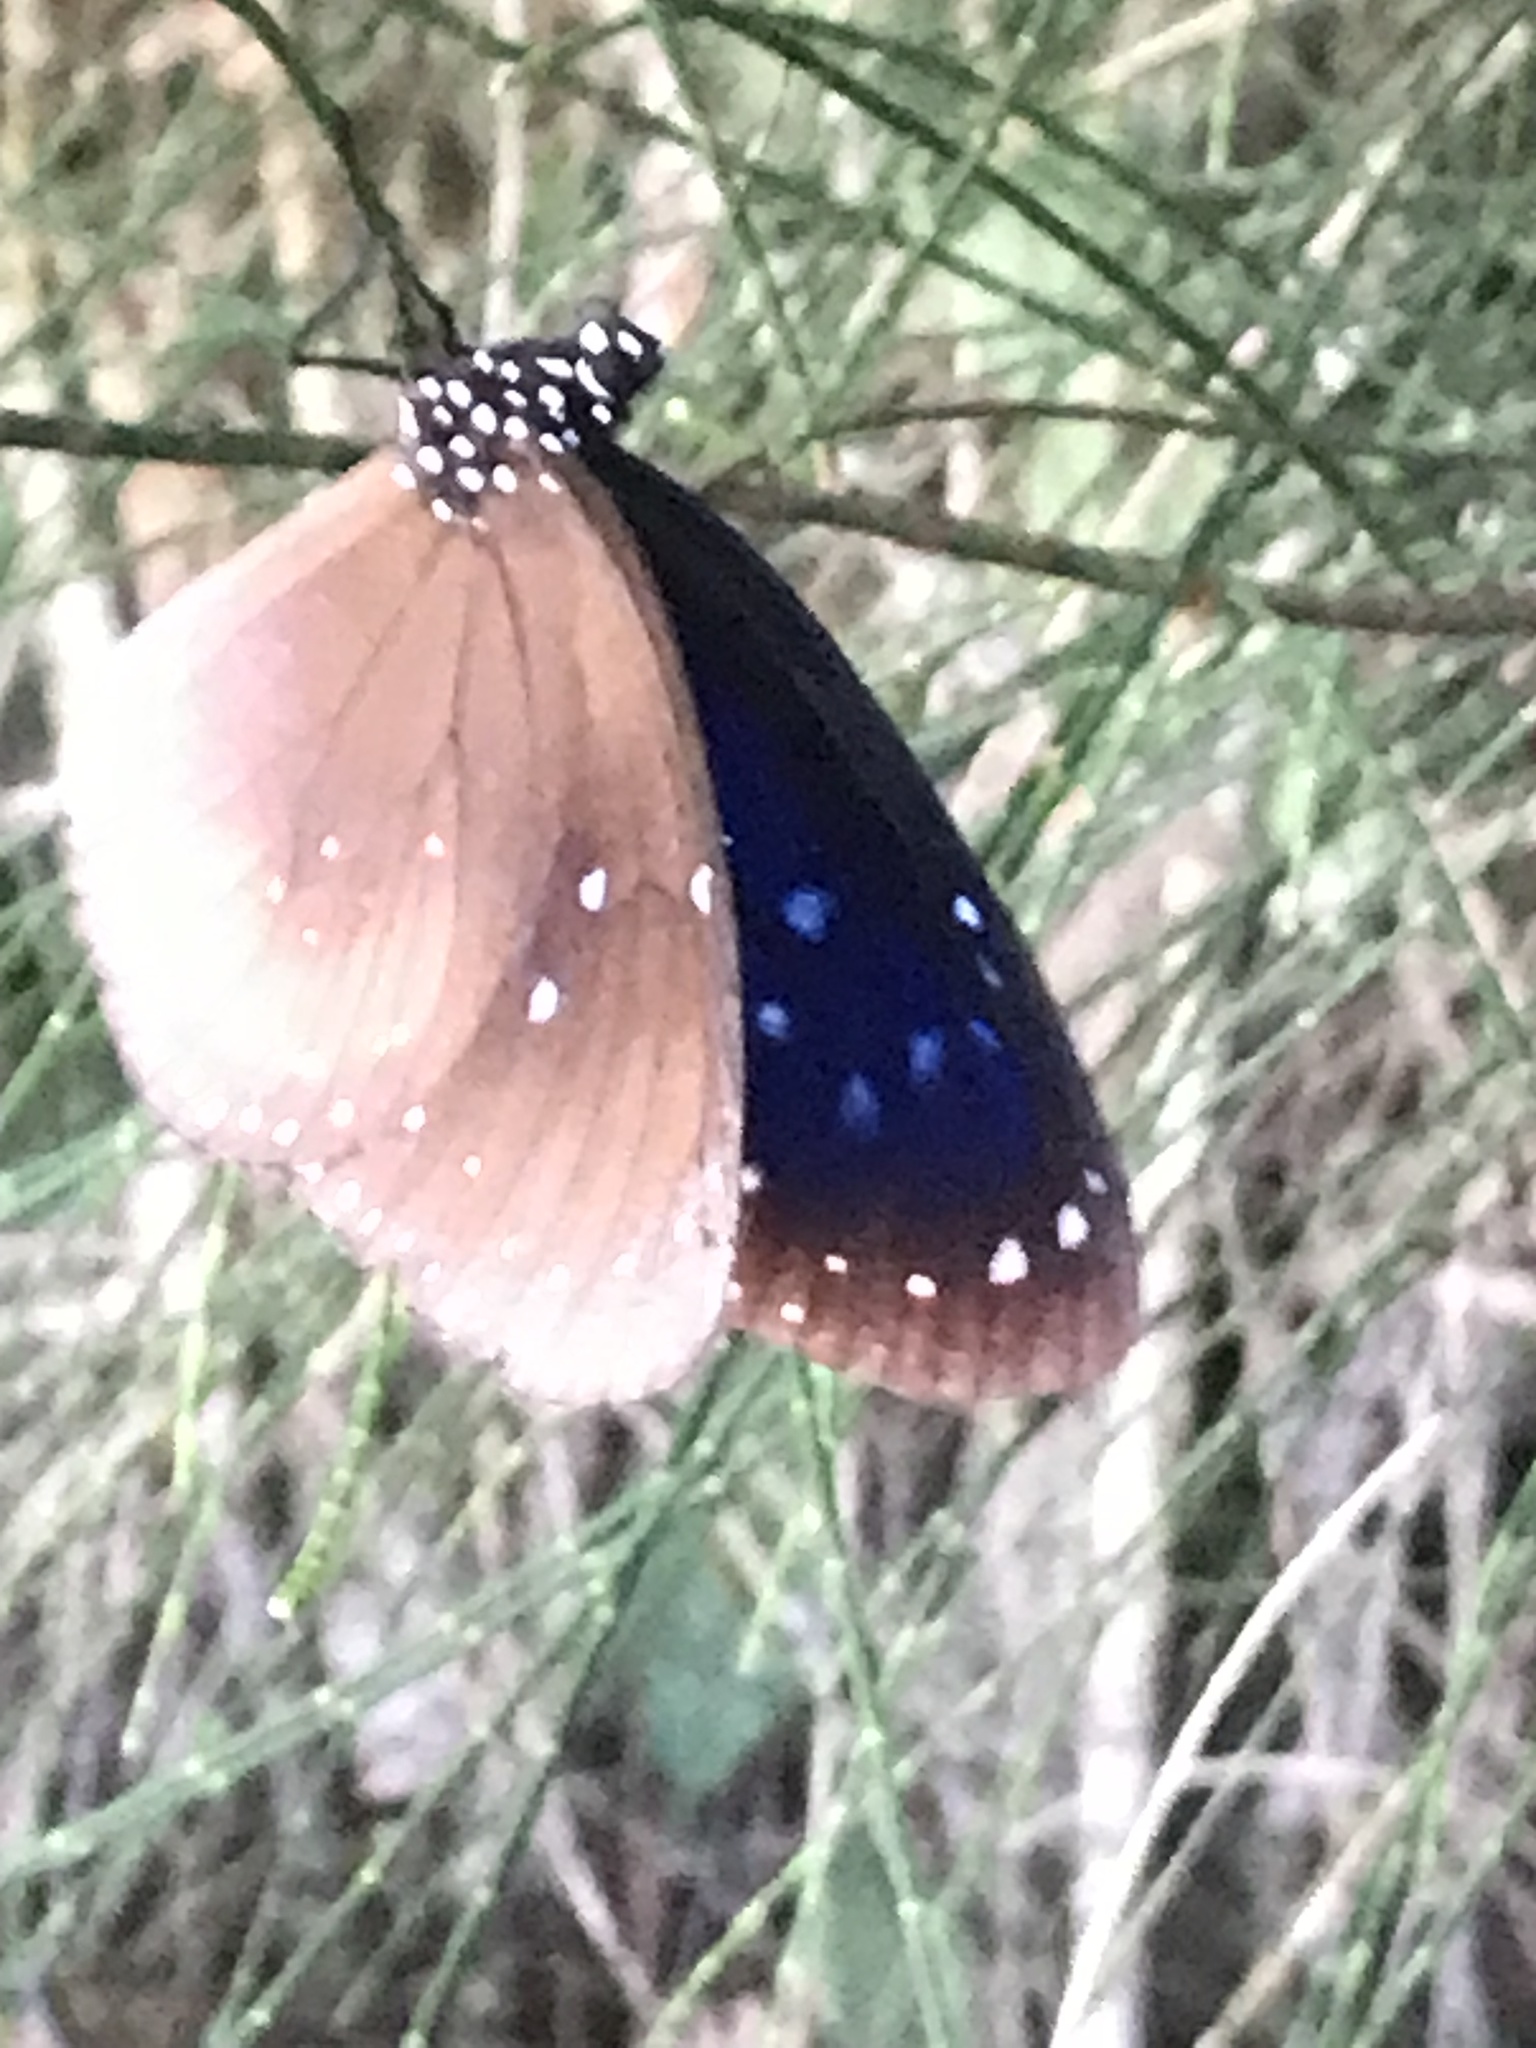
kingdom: Animalia
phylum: Arthropoda
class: Insecta
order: Lepidoptera
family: Nymphalidae
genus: Euploea
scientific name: Euploea midamus
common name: Blue-spotted crow butterfly
